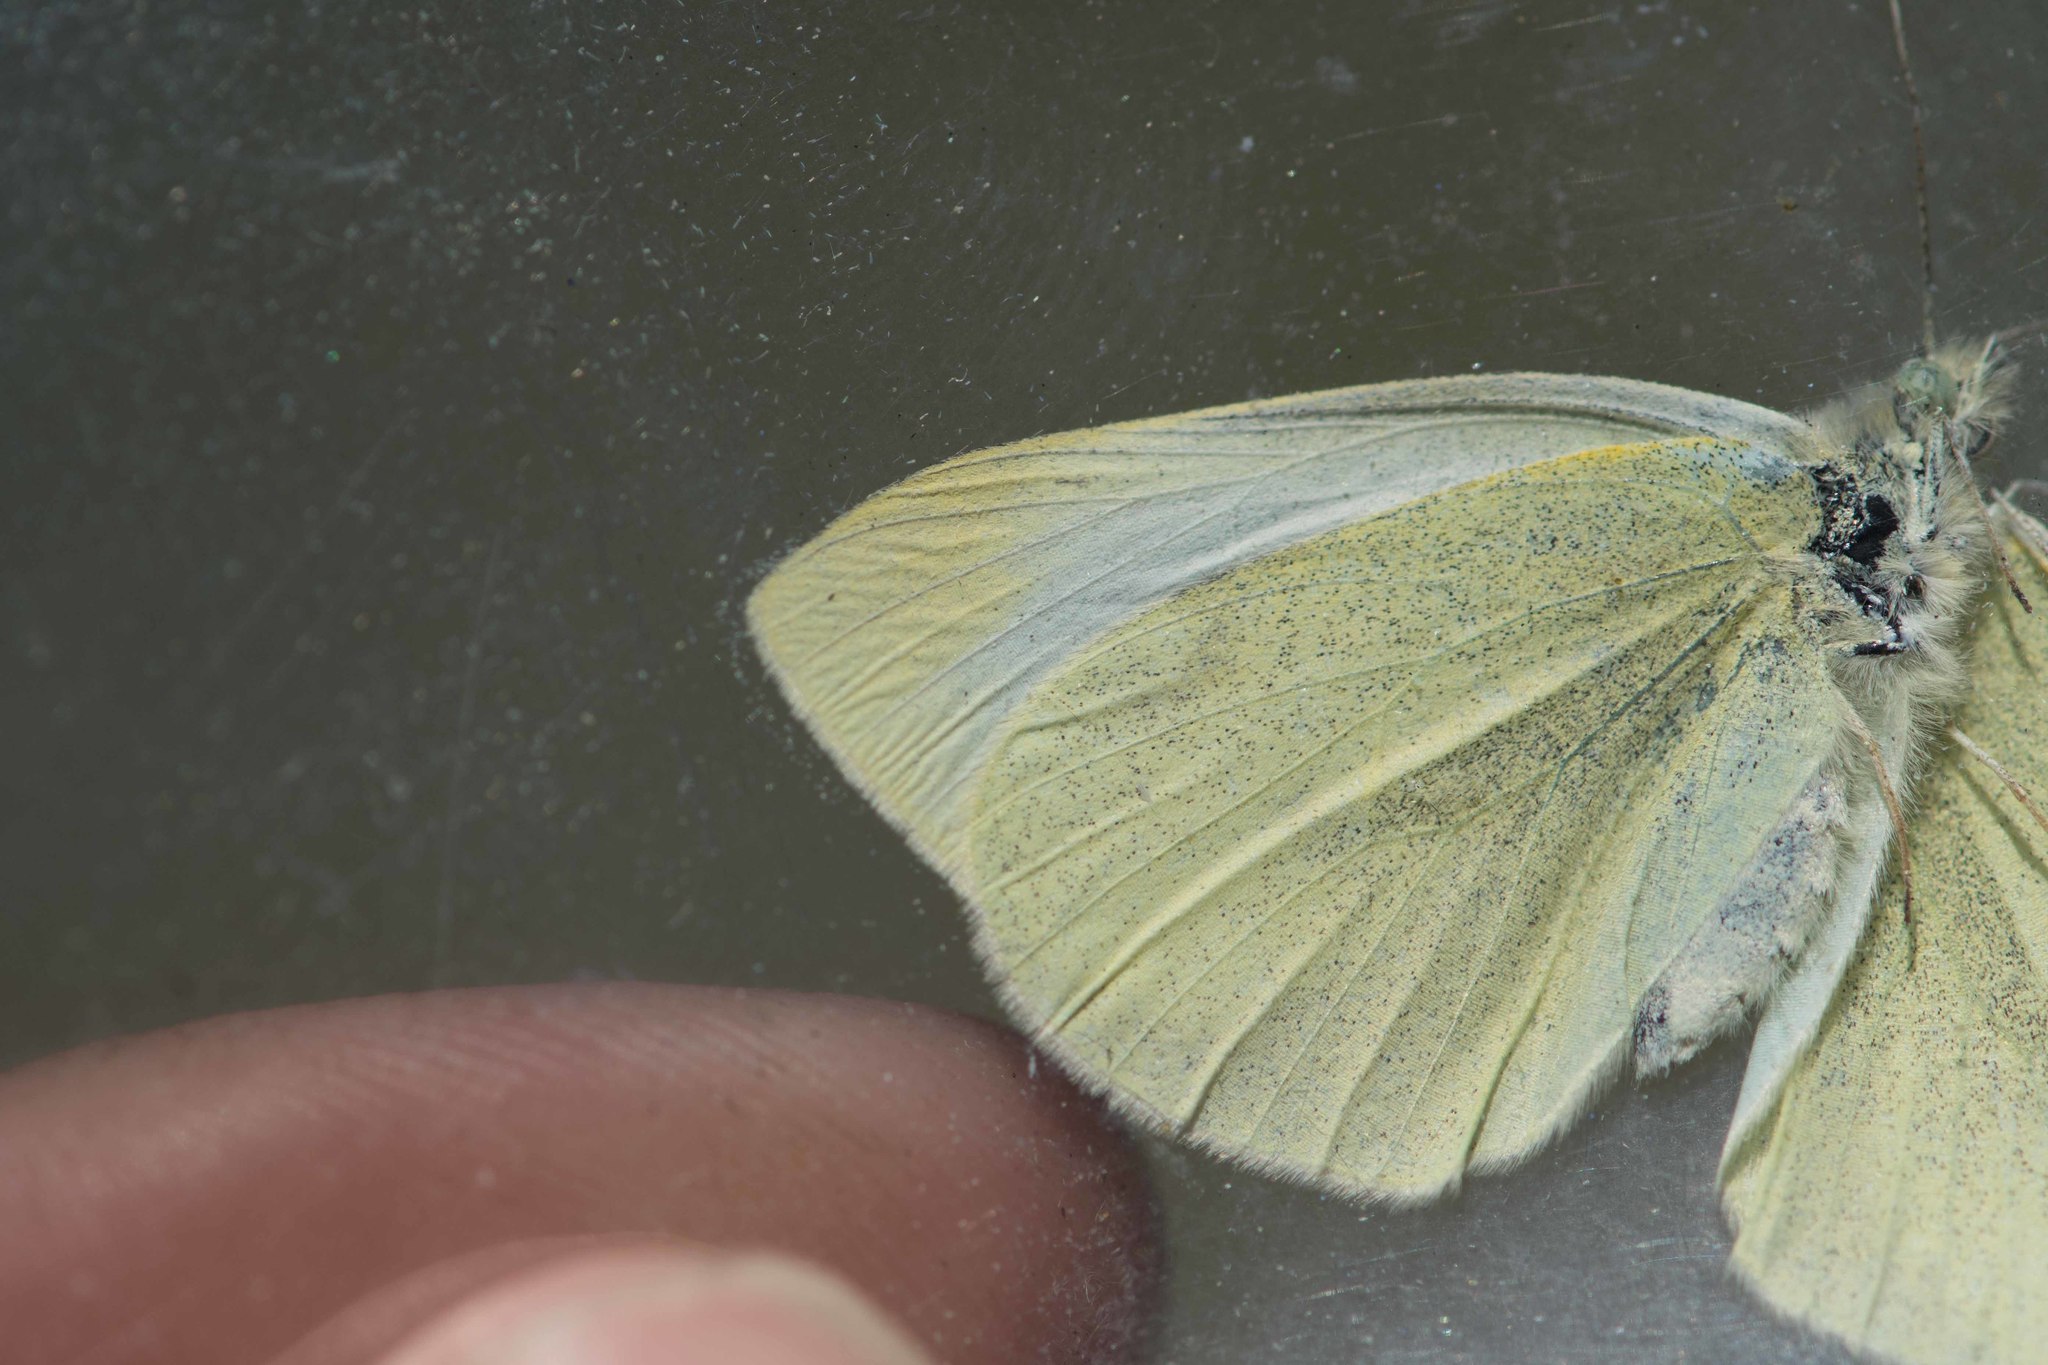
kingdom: Animalia
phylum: Arthropoda
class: Insecta
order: Lepidoptera
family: Pieridae
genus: Pieris
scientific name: Pieris rapae
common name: Small white
